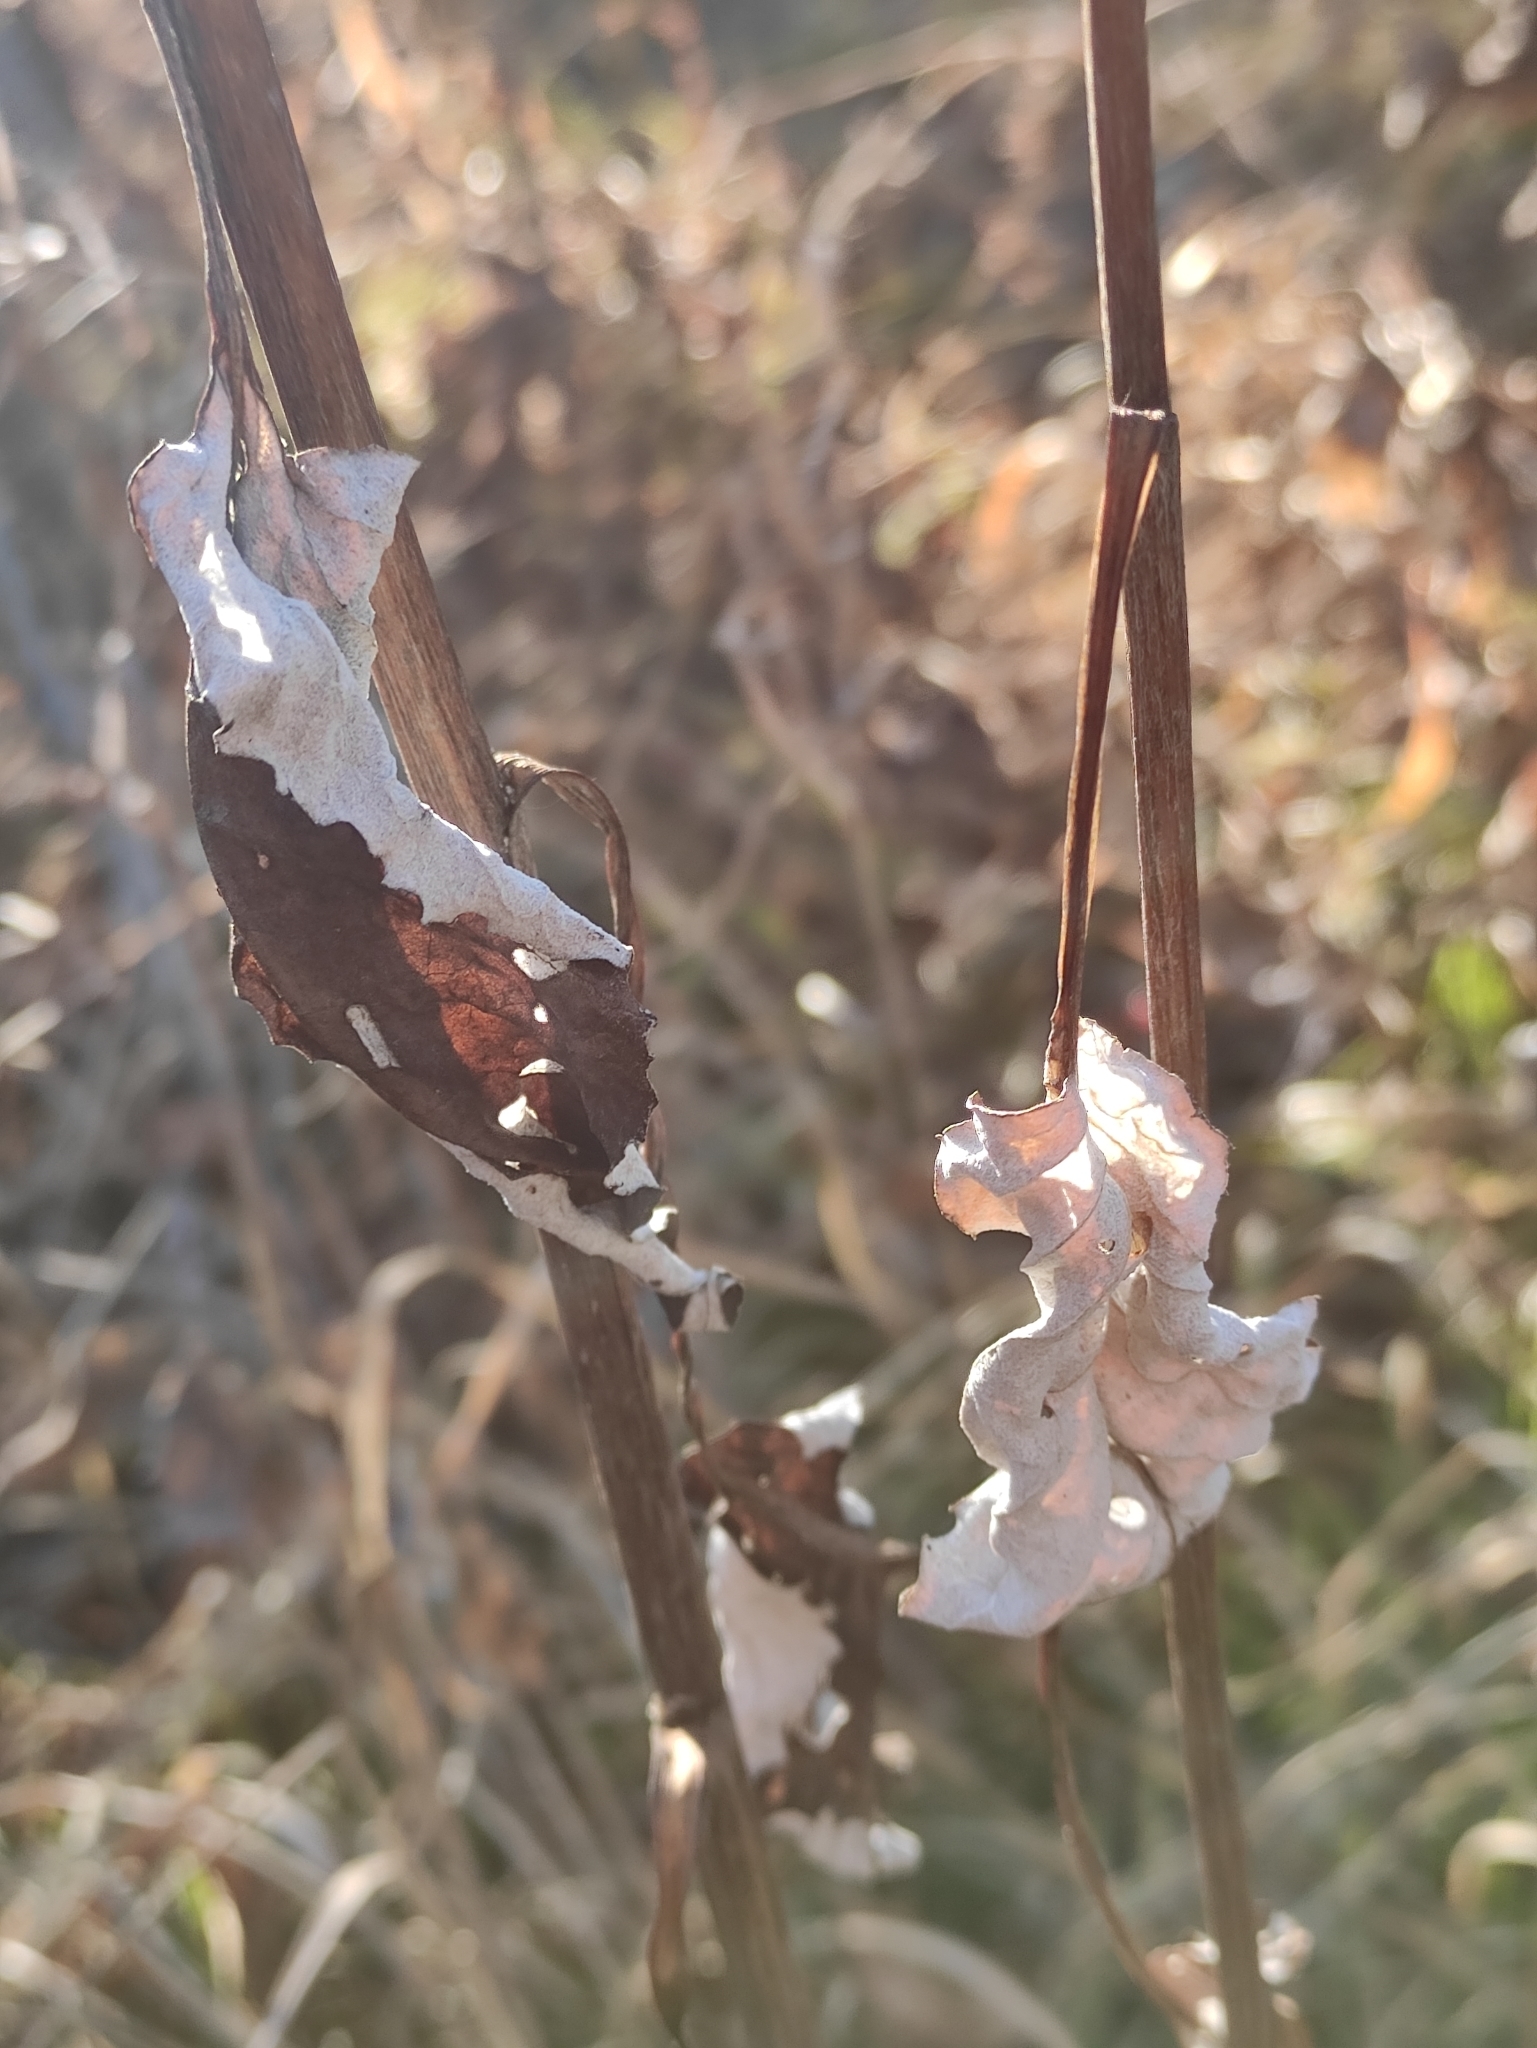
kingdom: Plantae
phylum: Tracheophyta
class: Magnoliopsida
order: Asterales
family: Asteraceae
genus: Saussurea
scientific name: Saussurea controversa
